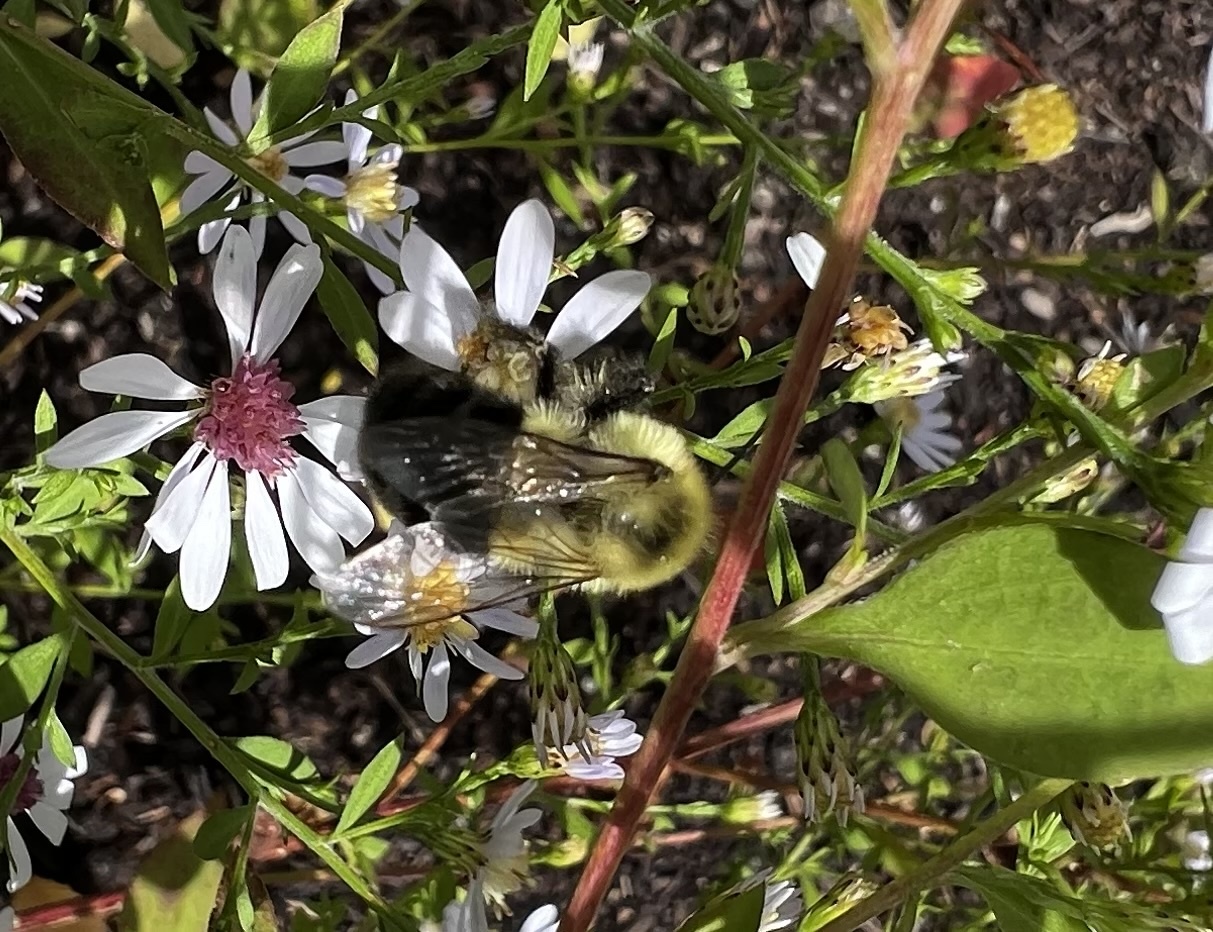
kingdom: Animalia
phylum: Arthropoda
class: Insecta
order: Hymenoptera
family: Apidae
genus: Bombus
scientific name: Bombus impatiens
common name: Common eastern bumble bee
